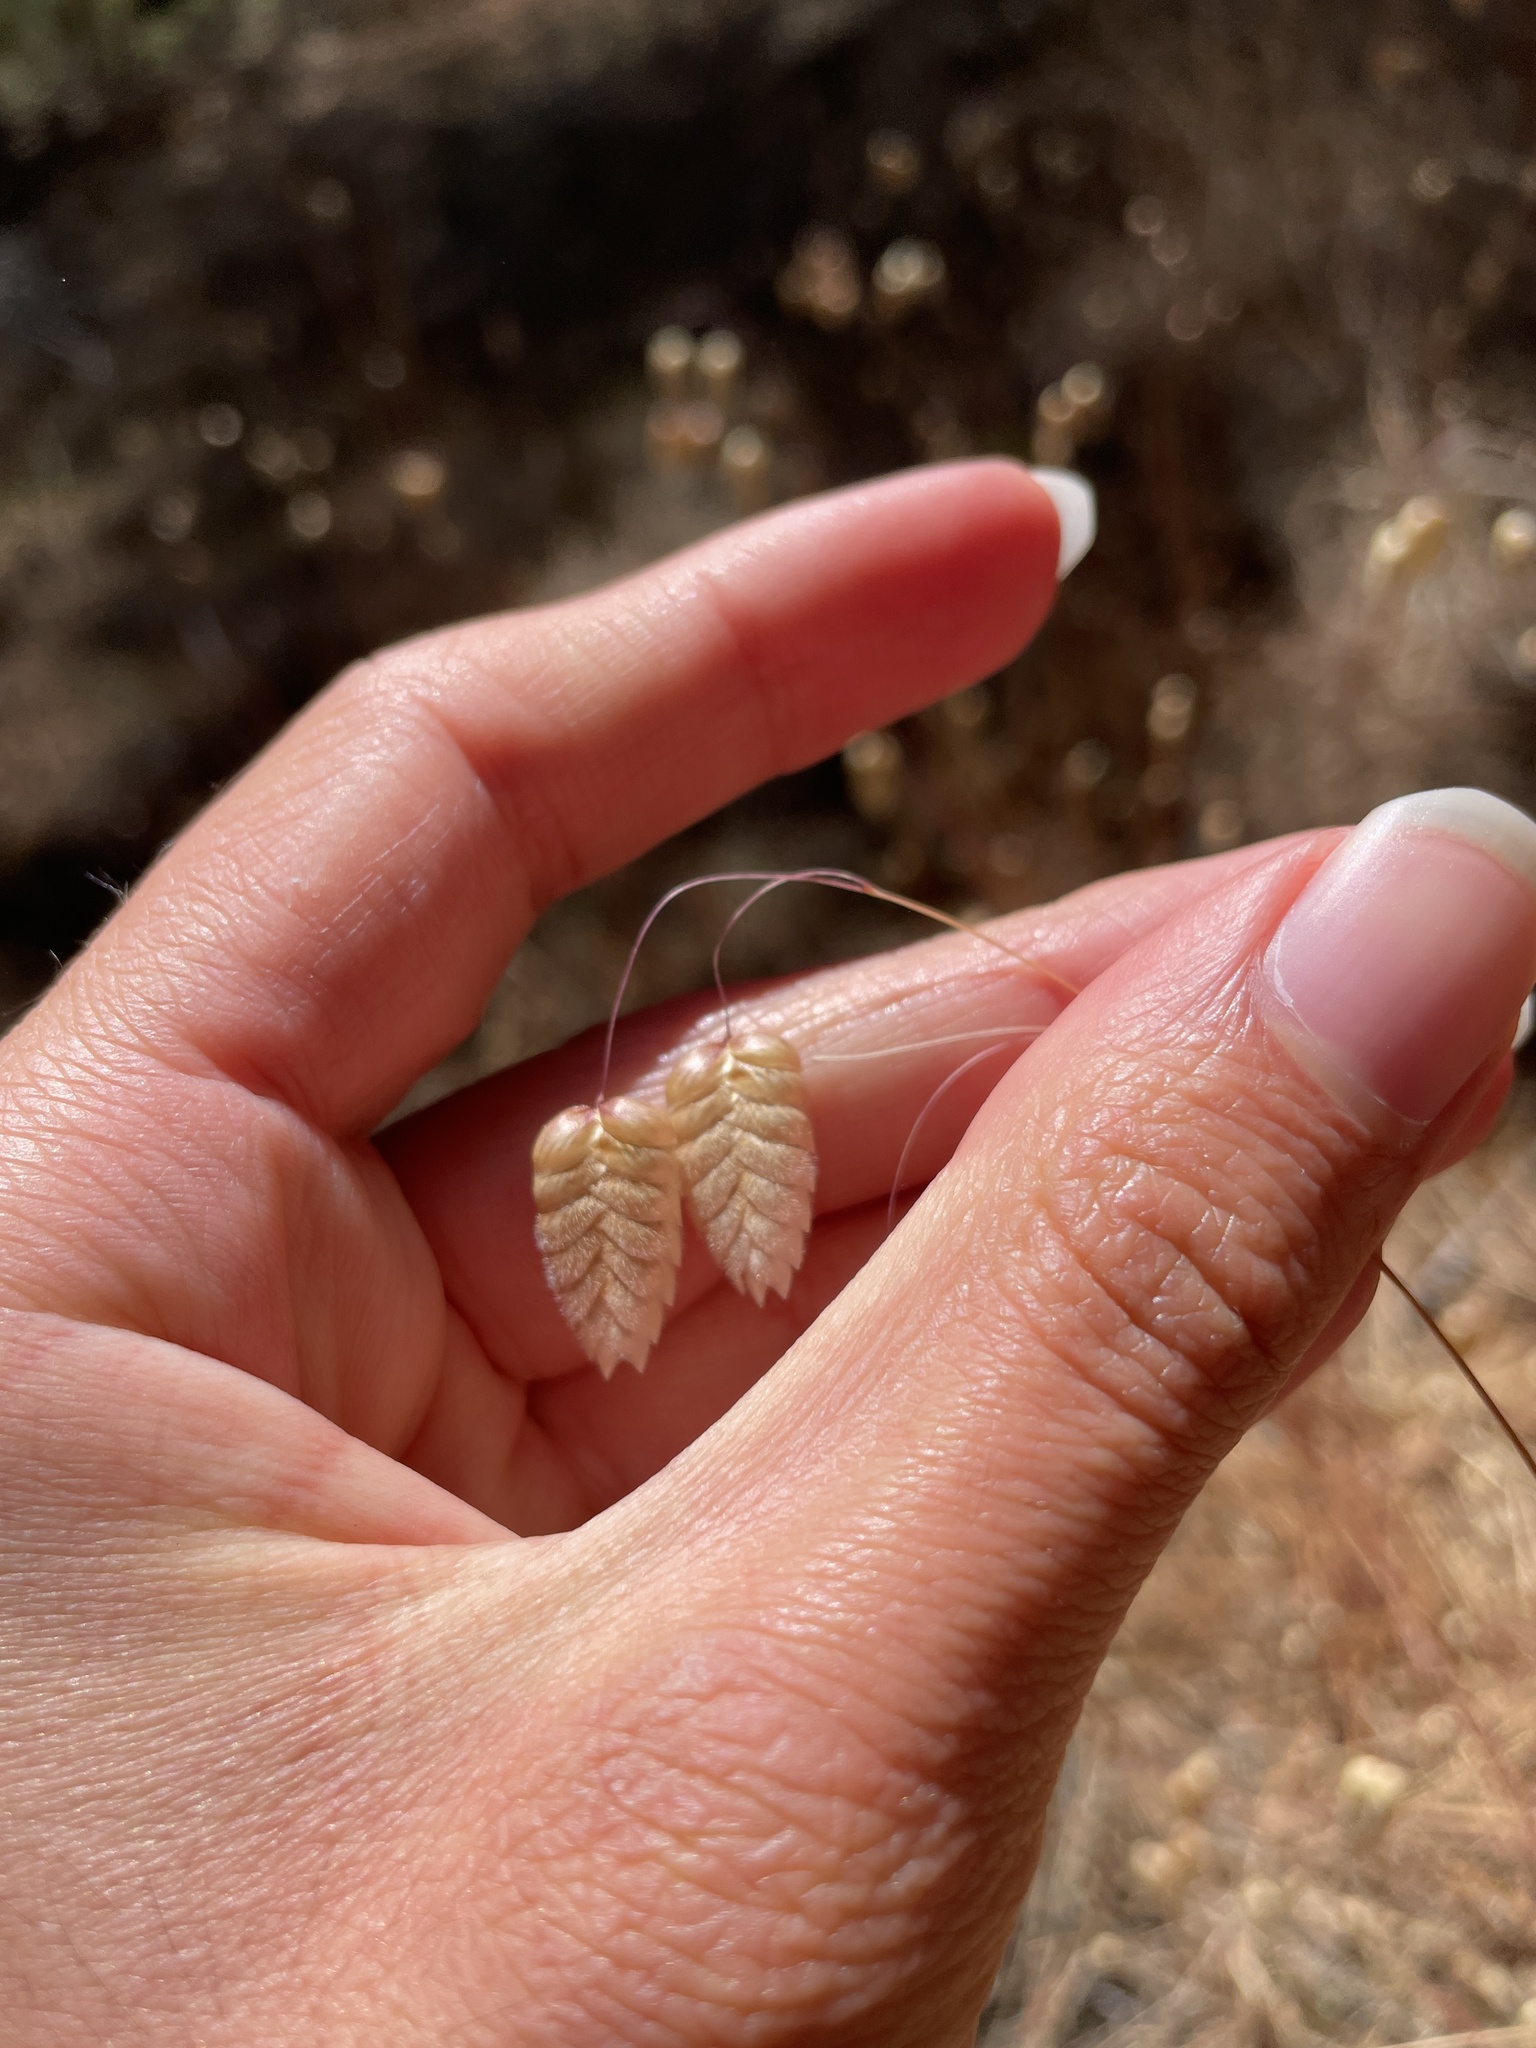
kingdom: Plantae
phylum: Tracheophyta
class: Liliopsida
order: Poales
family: Poaceae
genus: Briza
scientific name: Briza maxima
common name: Big quakinggrass
